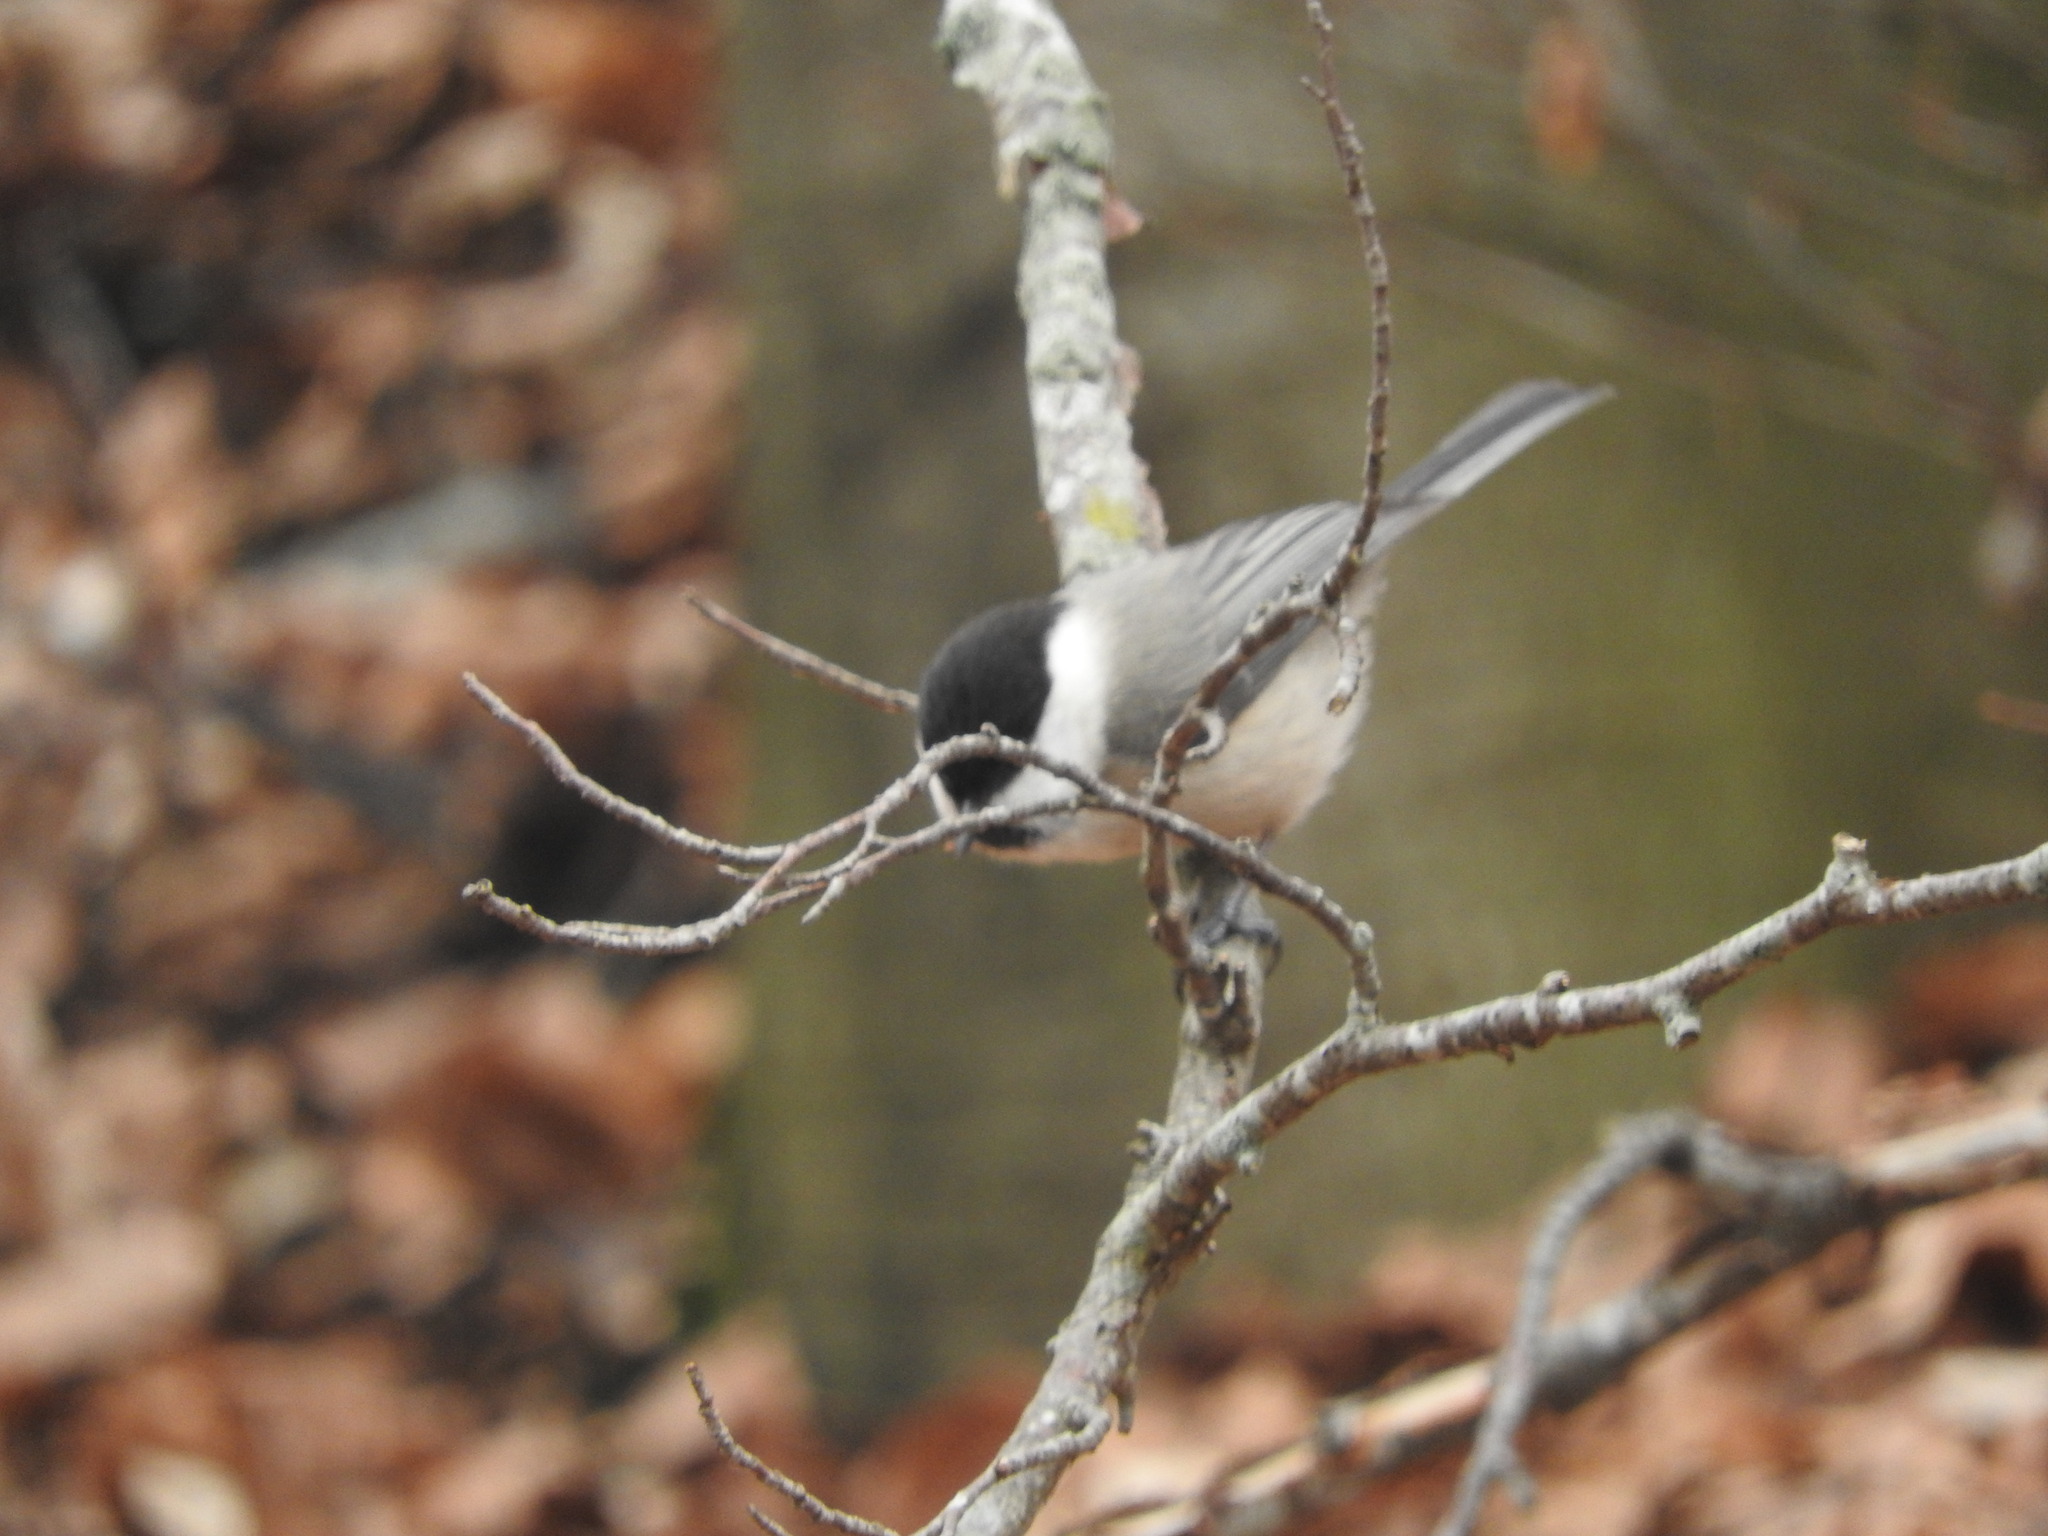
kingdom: Animalia
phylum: Chordata
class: Aves
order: Passeriformes
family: Paridae
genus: Poecile
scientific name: Poecile palustris
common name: Marsh tit
